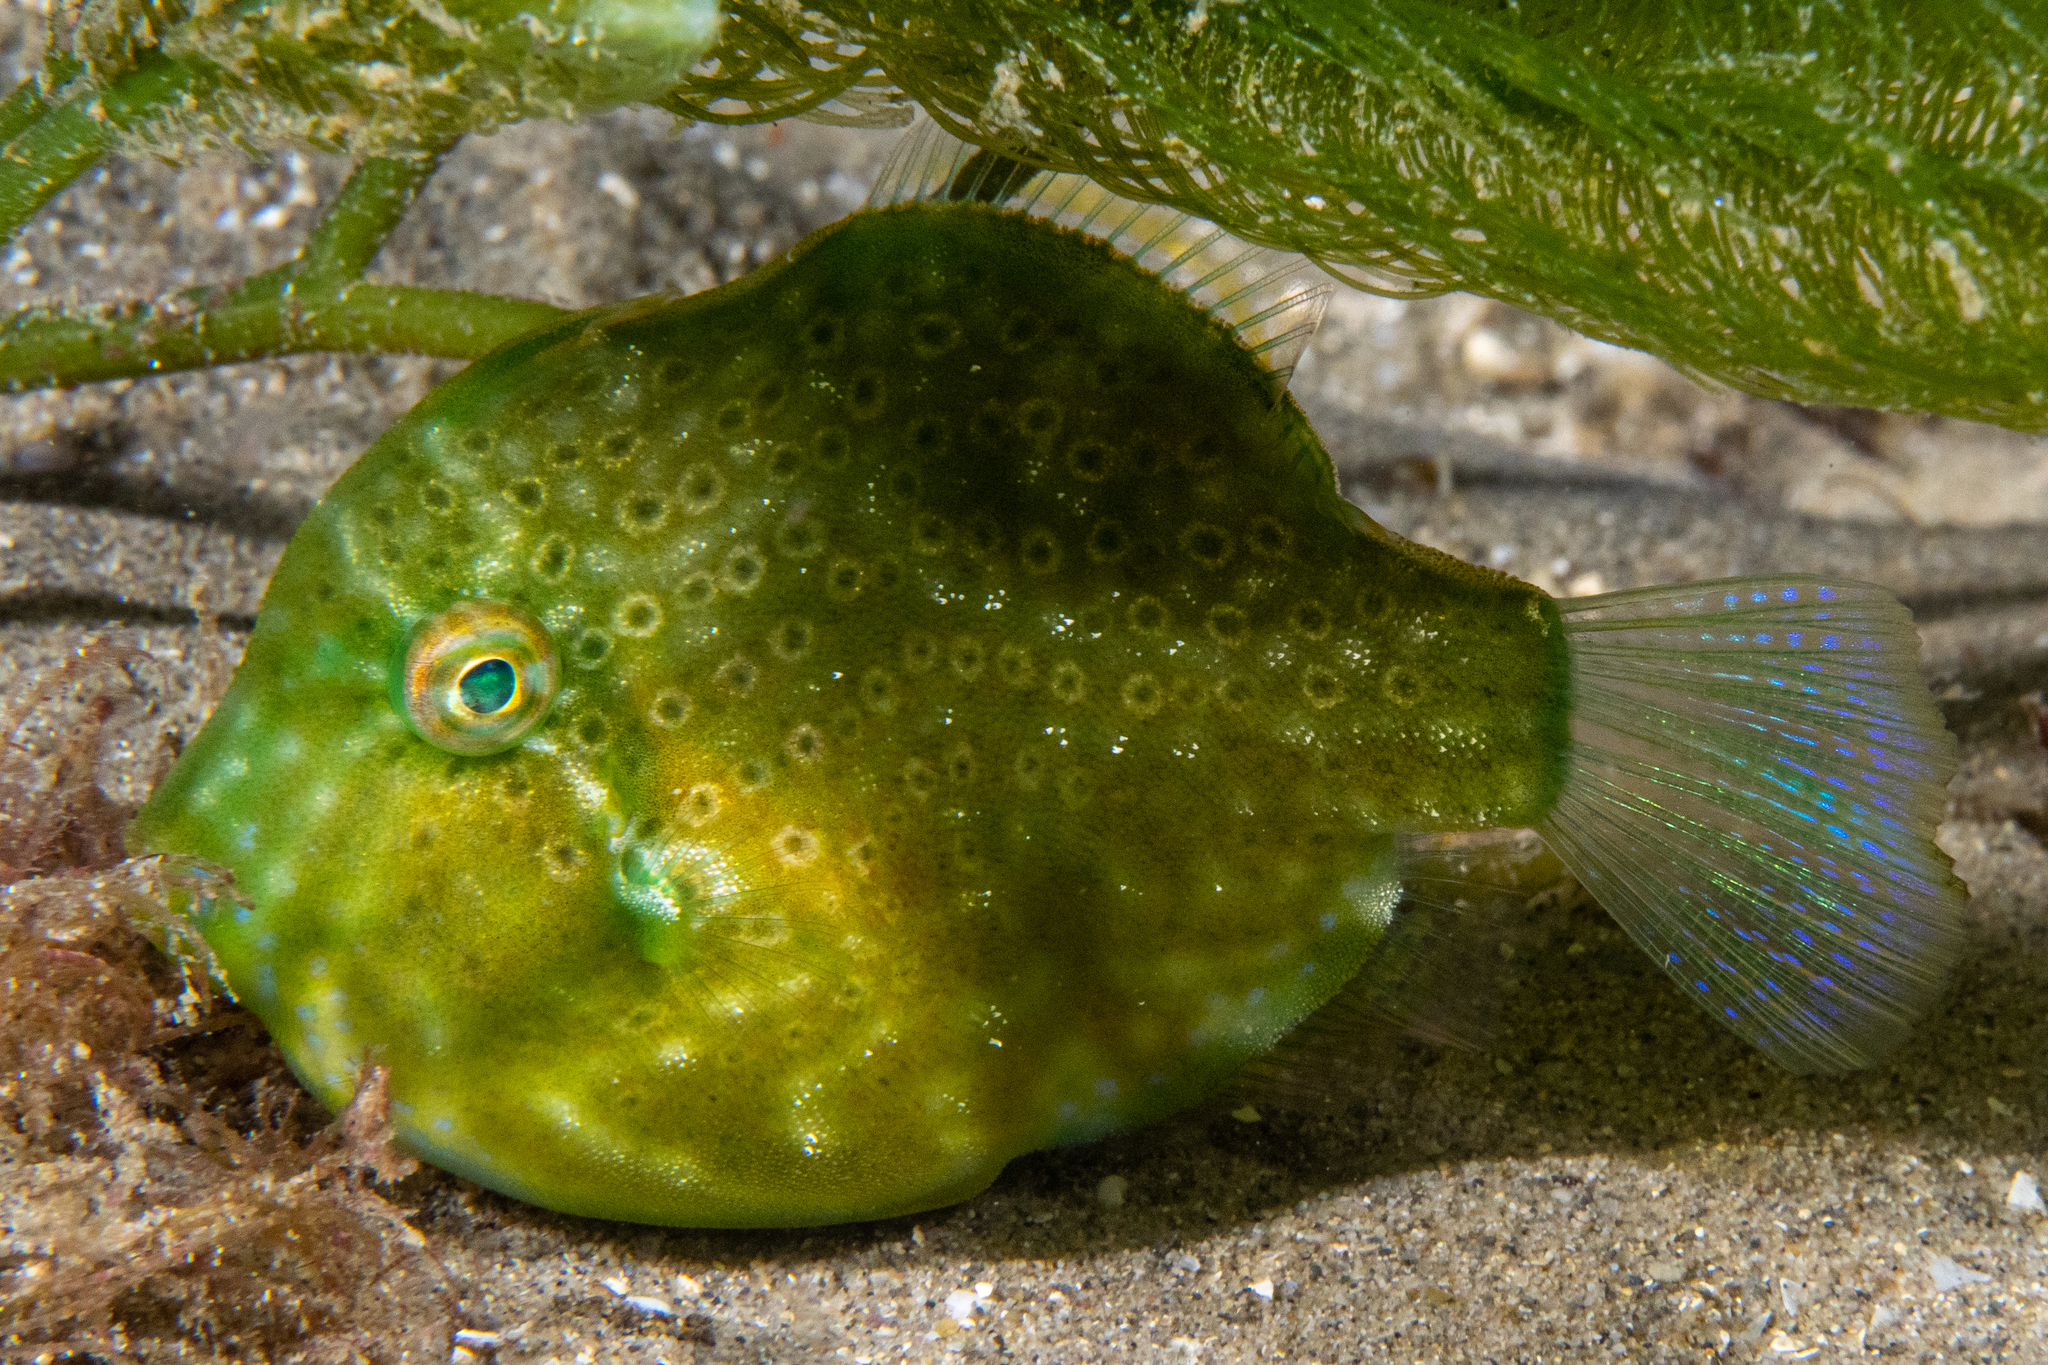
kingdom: Animalia
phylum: Chordata
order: Tetraodontiformes
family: Monacanthidae
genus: Brachaluteres
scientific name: Brachaluteres jacksonianus
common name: Pigmy leatherjacket
